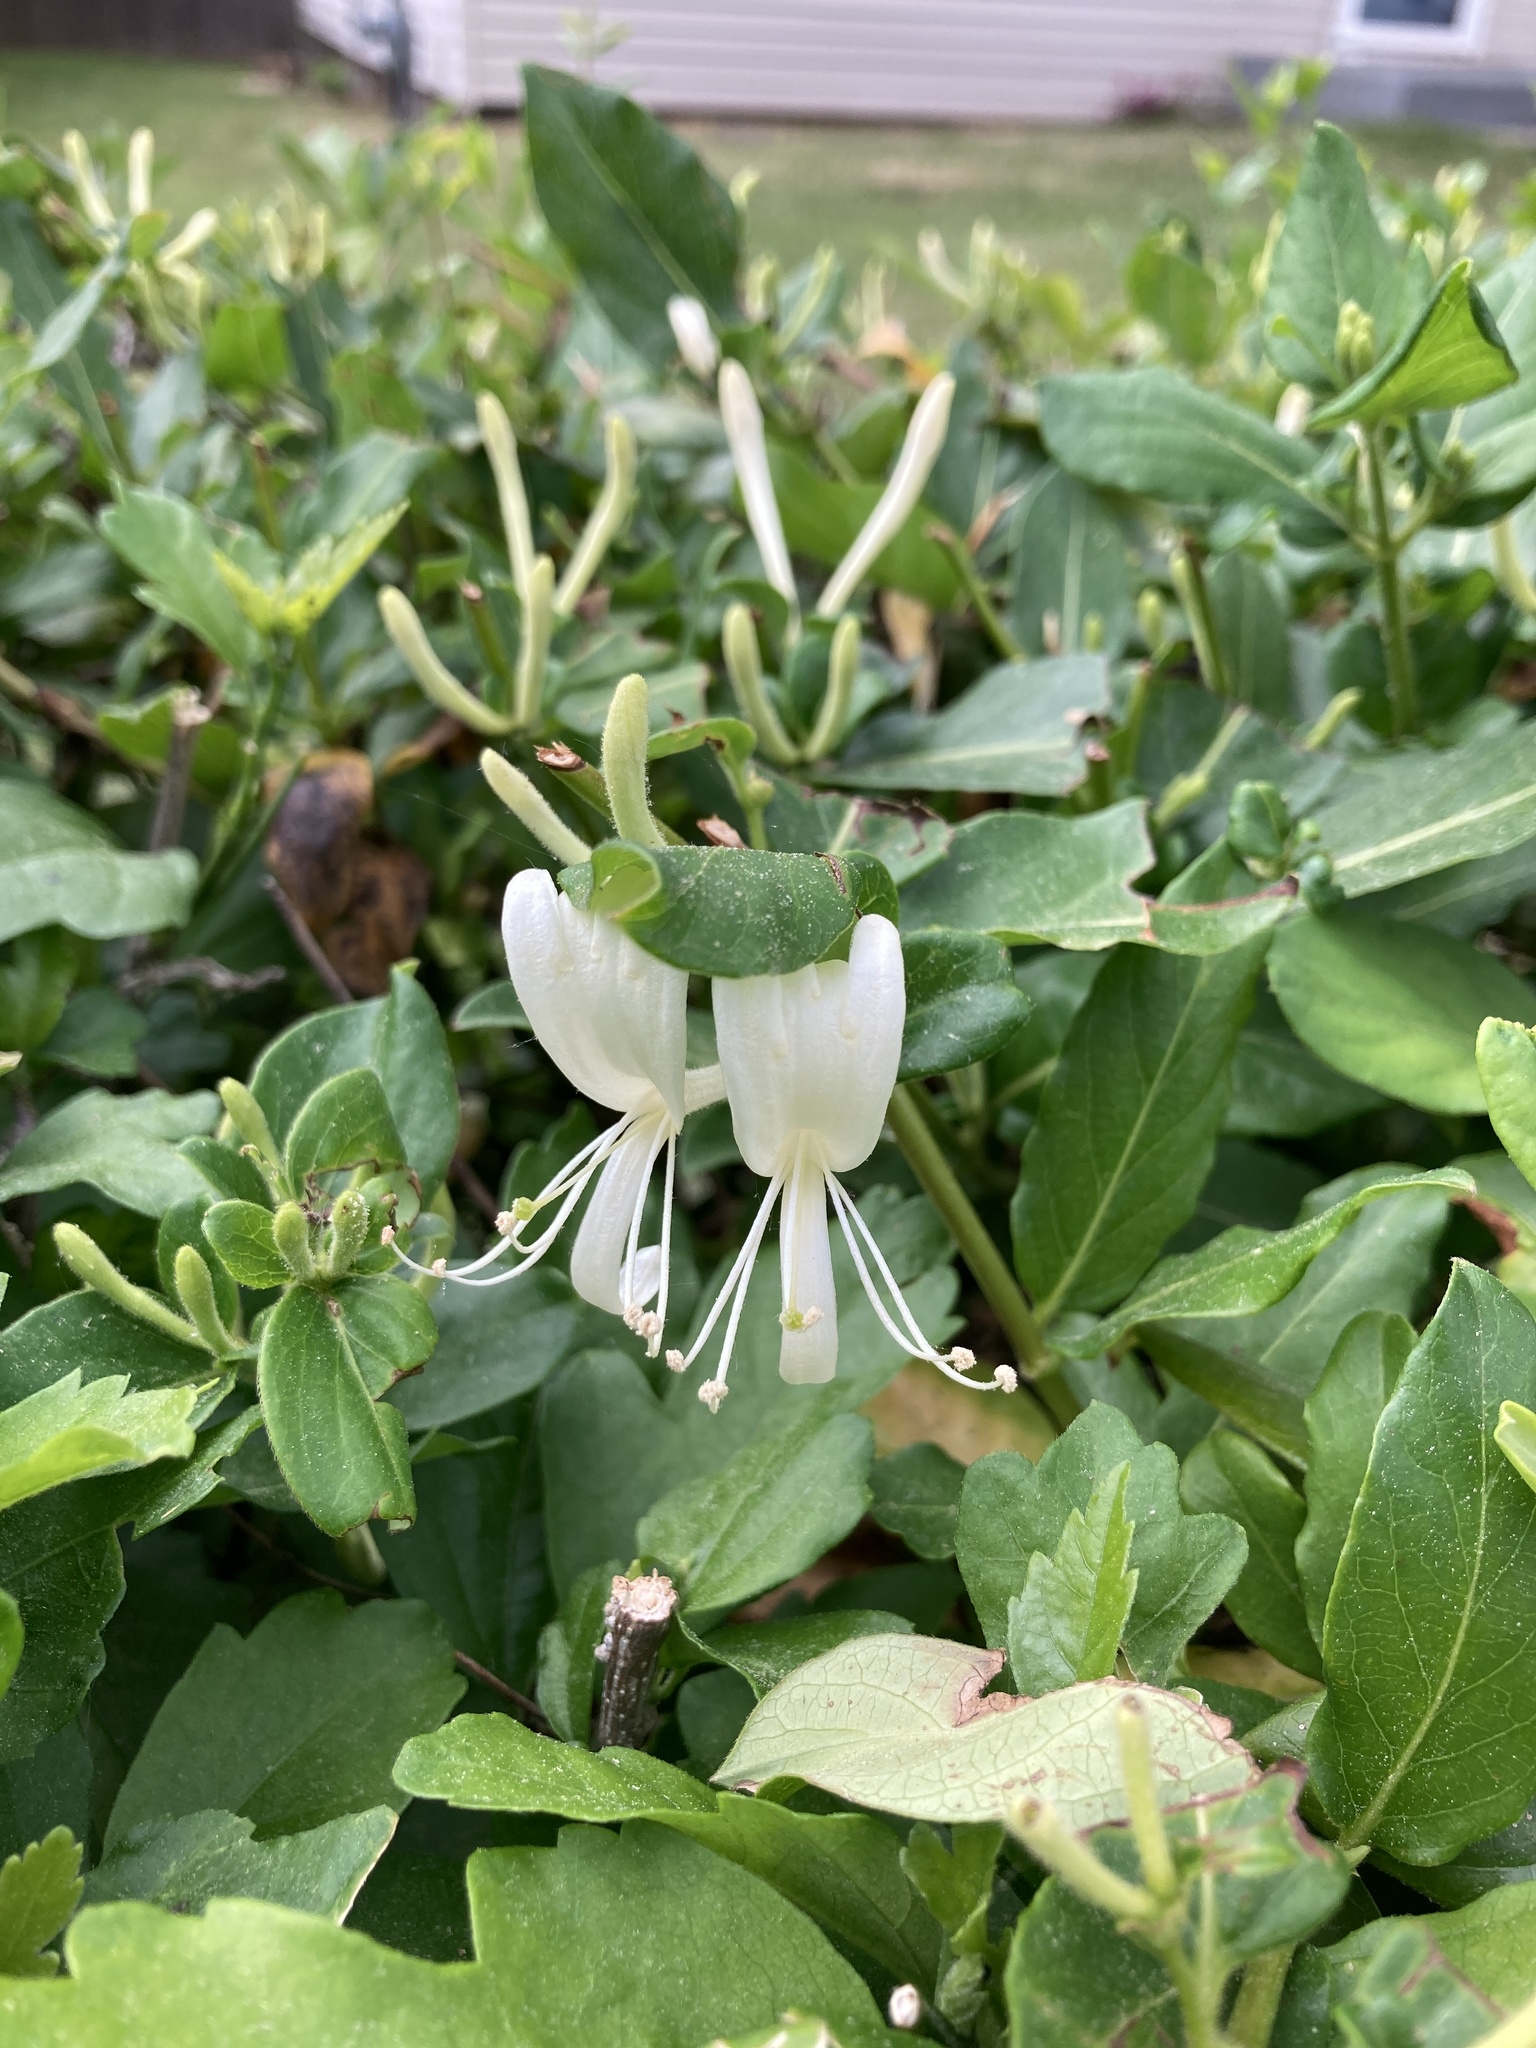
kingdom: Plantae
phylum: Tracheophyta
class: Magnoliopsida
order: Dipsacales
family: Caprifoliaceae
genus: Lonicera
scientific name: Lonicera japonica
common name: Japanese honeysuckle
